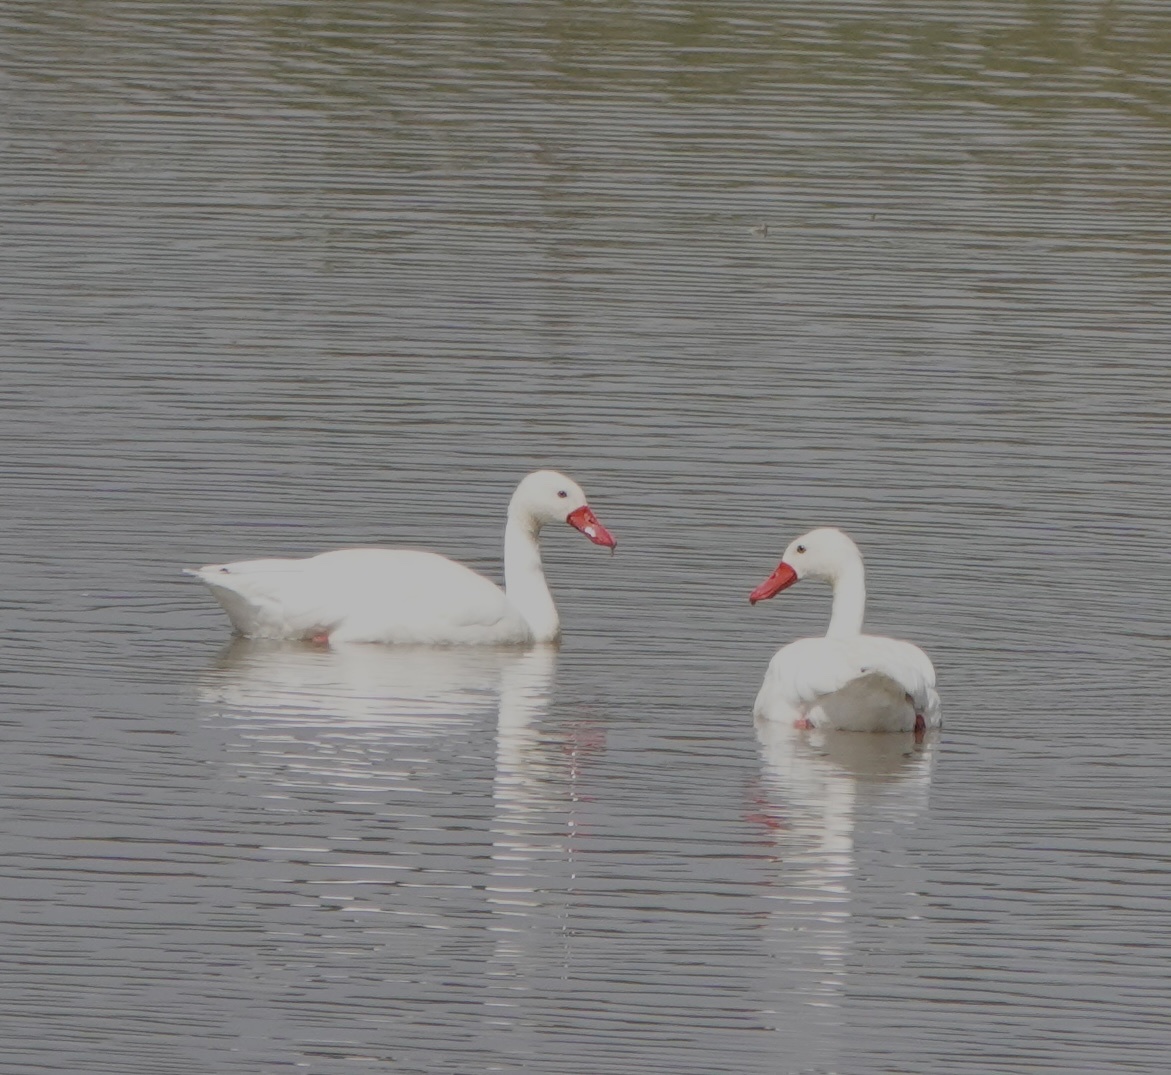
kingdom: Animalia
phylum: Chordata
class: Aves
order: Anseriformes
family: Anatidae
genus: Coscoroba
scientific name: Coscoroba coscoroba
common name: Coscoroba swan
